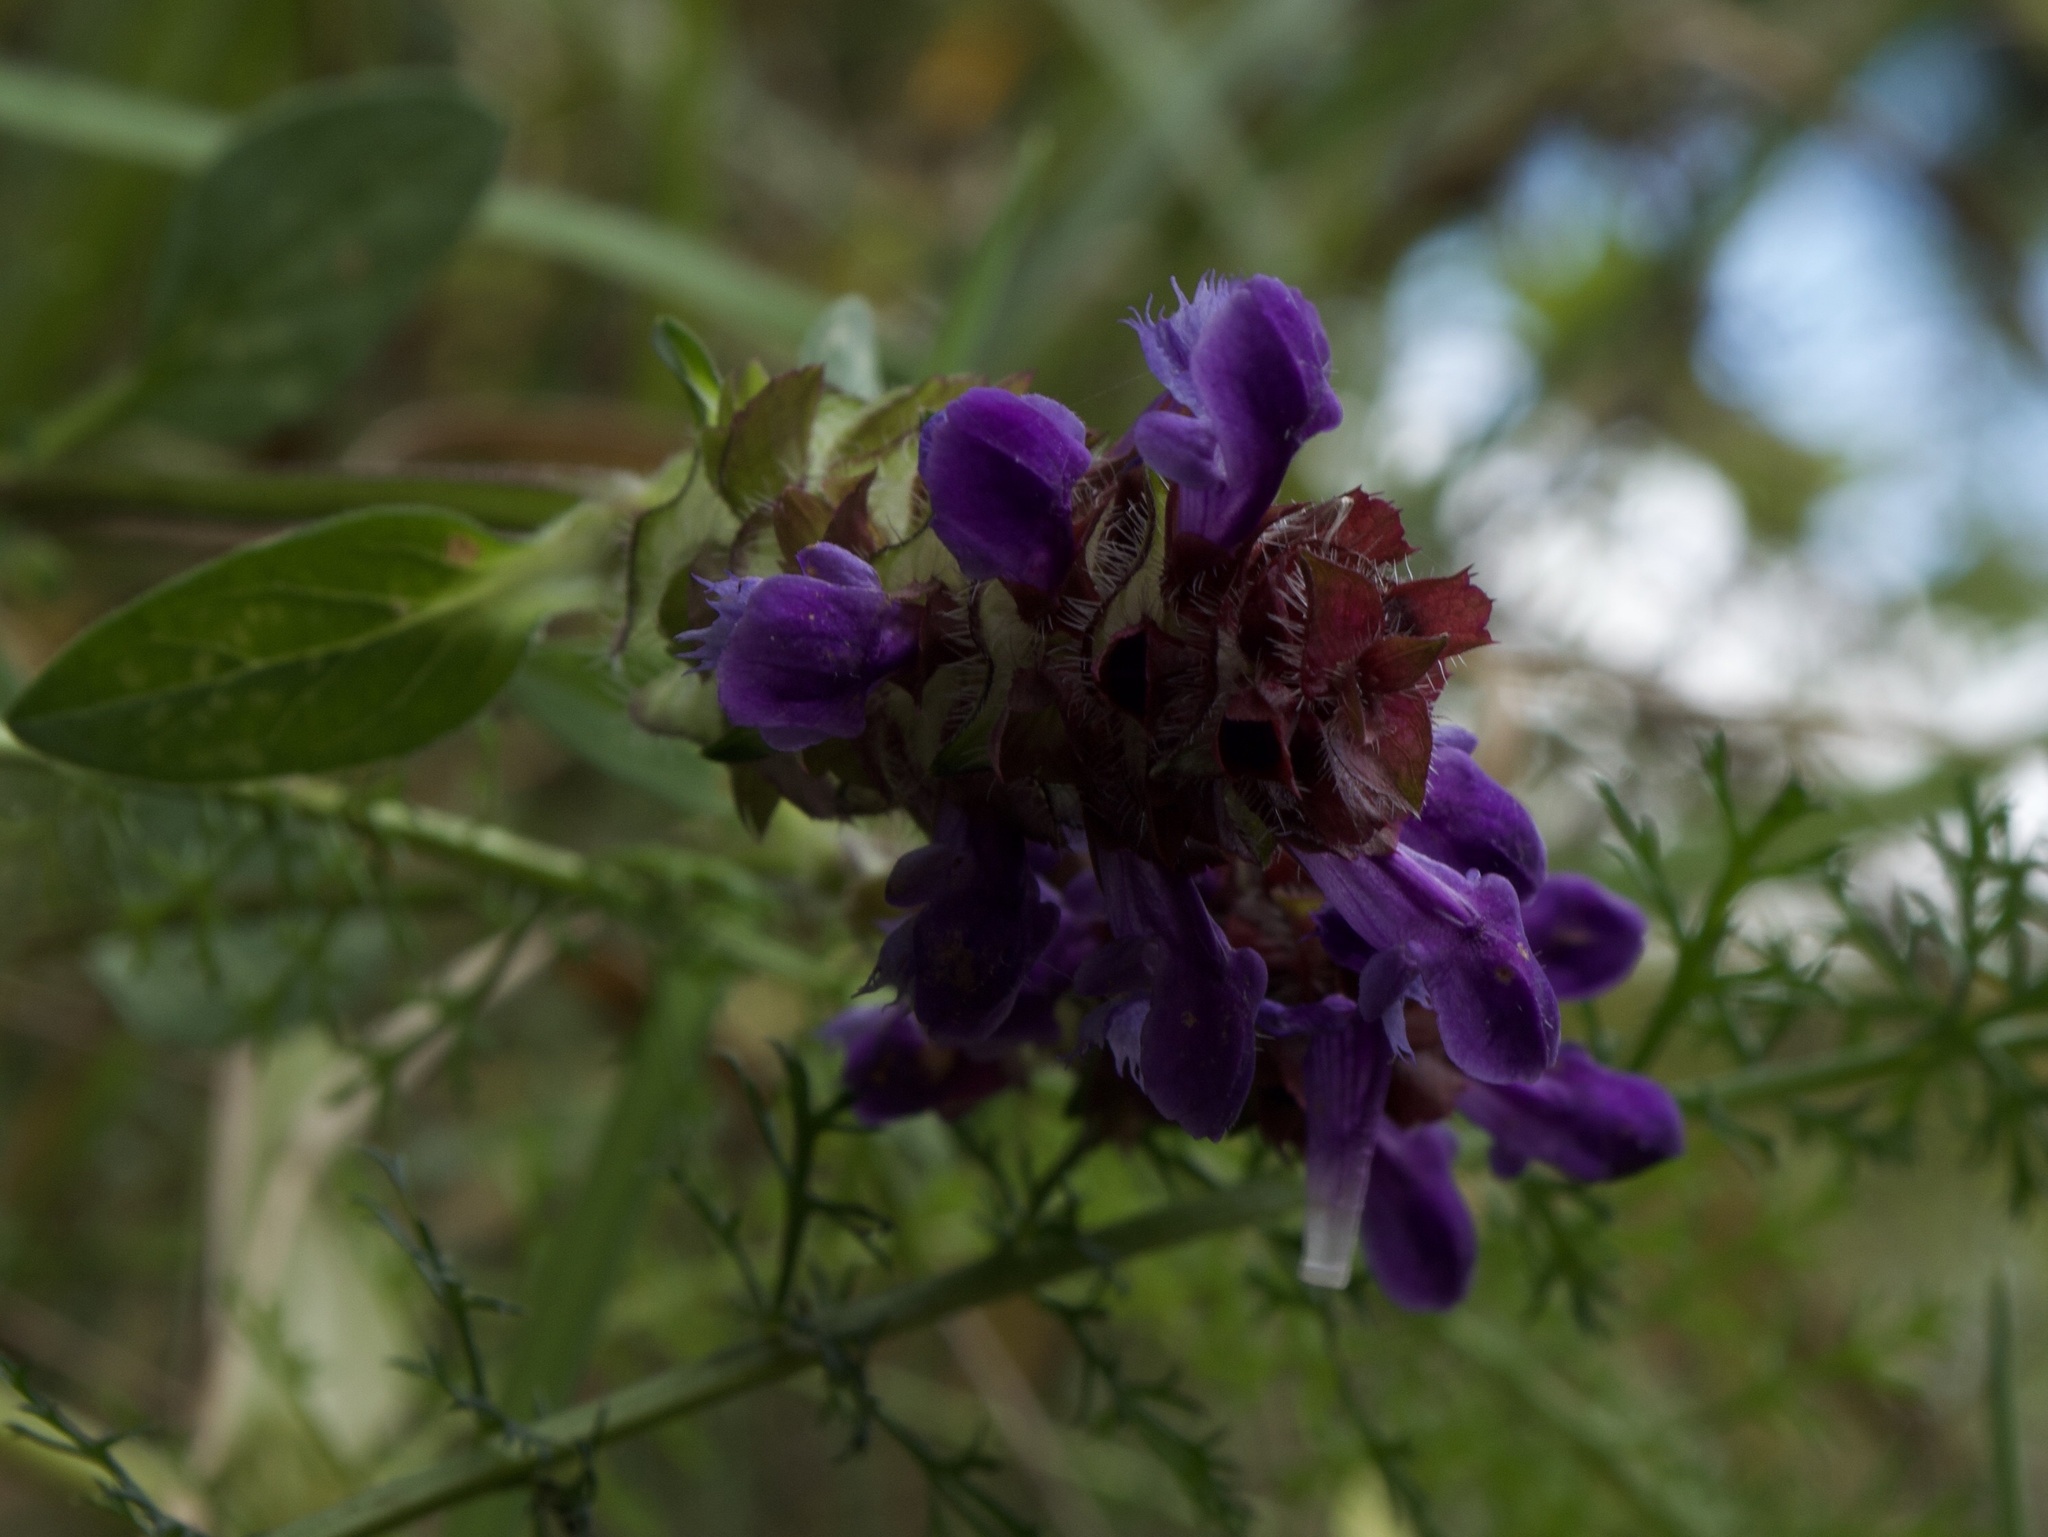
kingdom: Plantae
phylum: Tracheophyta
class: Magnoliopsida
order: Lamiales
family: Lamiaceae
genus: Prunella
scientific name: Prunella vulgaris
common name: Heal-all
